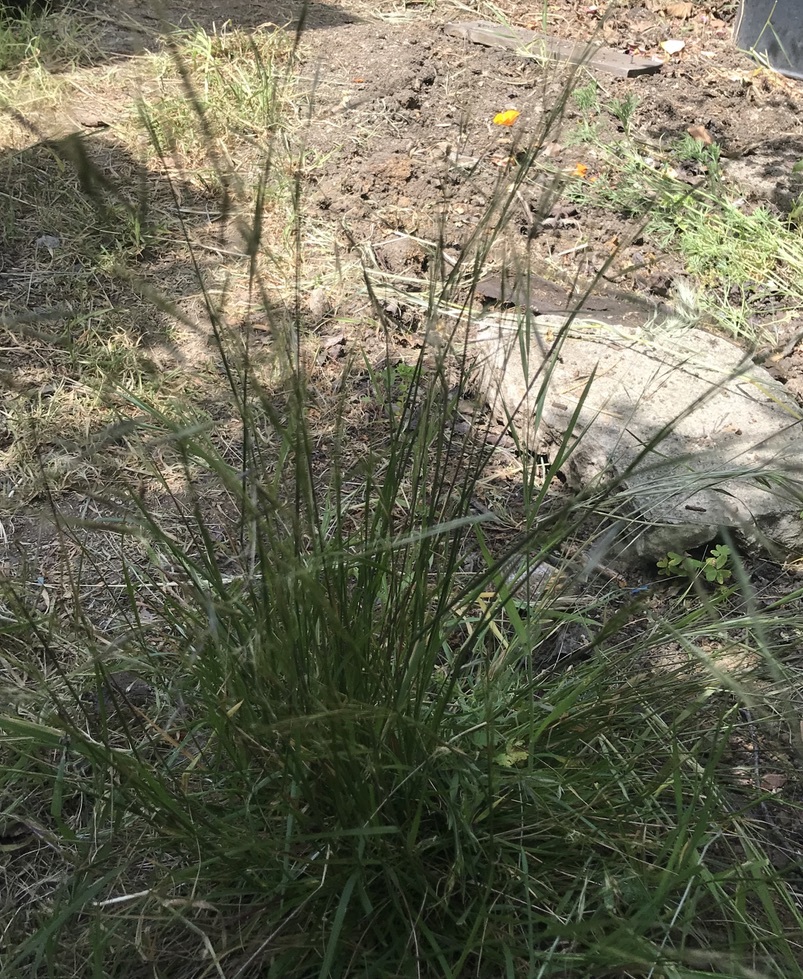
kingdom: Plantae
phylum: Tracheophyta
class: Liliopsida
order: Poales
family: Poaceae
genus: Nassella
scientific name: Nassella lepida
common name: Foothill needlegrass
